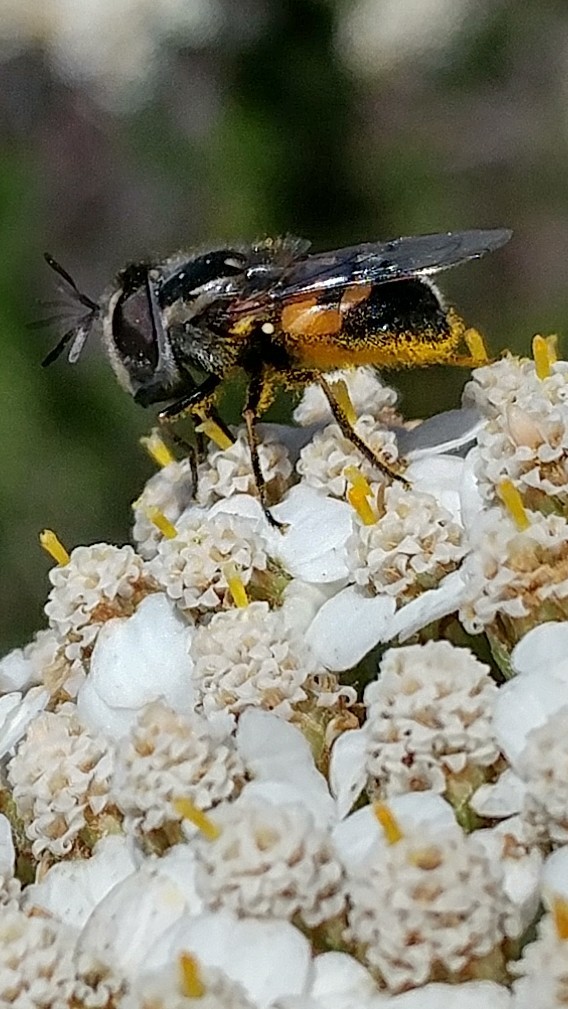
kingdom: Animalia
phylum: Arthropoda
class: Insecta
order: Diptera
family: Syrphidae
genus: Copestylum
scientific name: Copestylum lentum
